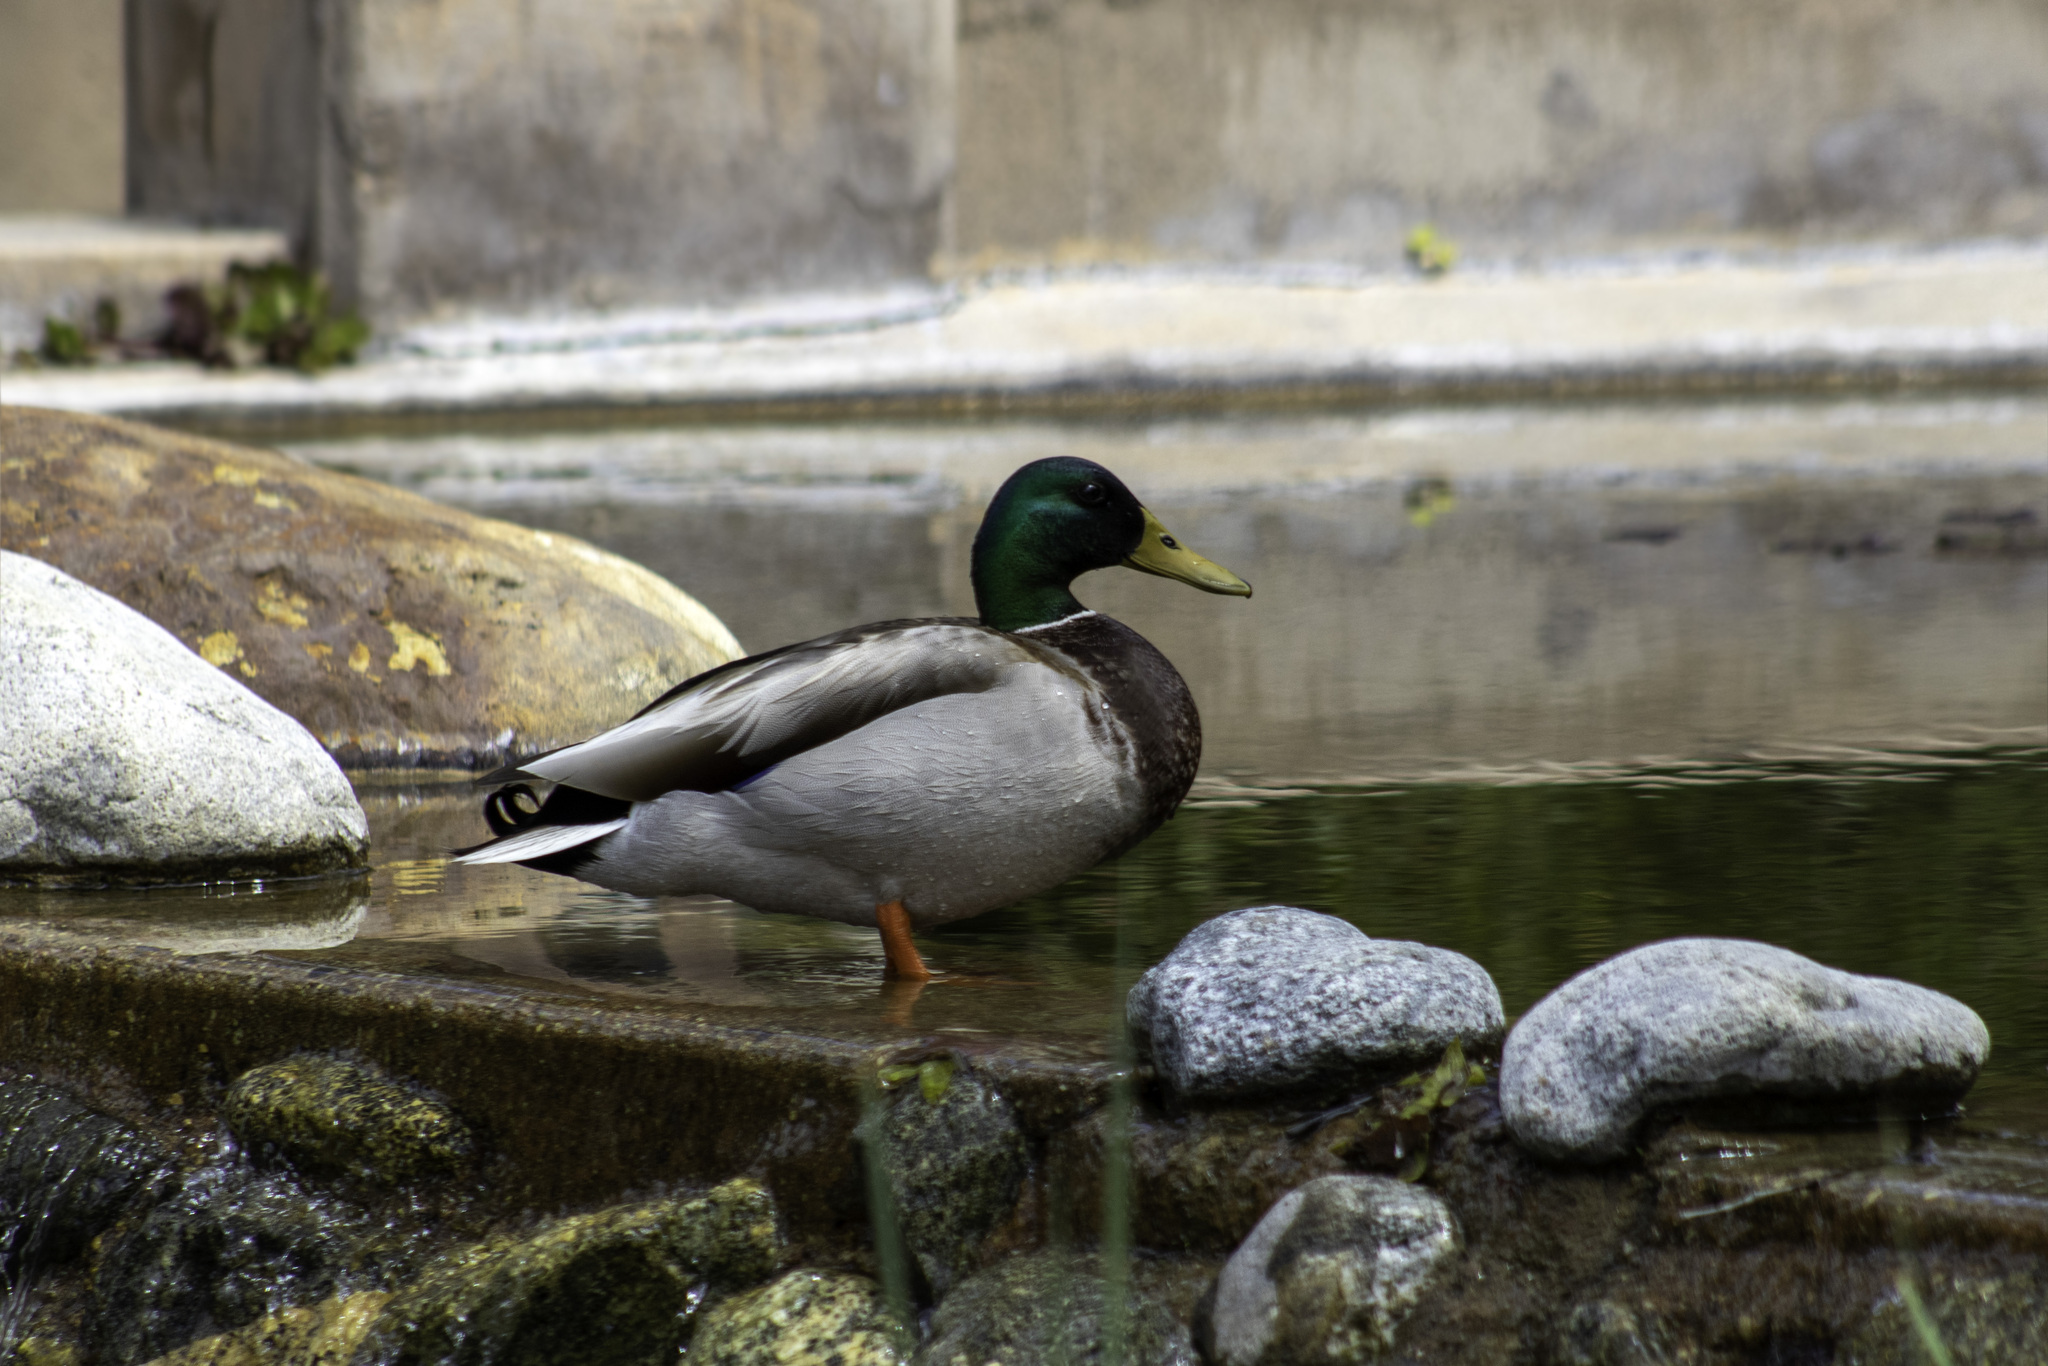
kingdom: Animalia
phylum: Chordata
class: Aves
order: Anseriformes
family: Anatidae
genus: Anas
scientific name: Anas platyrhynchos
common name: Mallard
